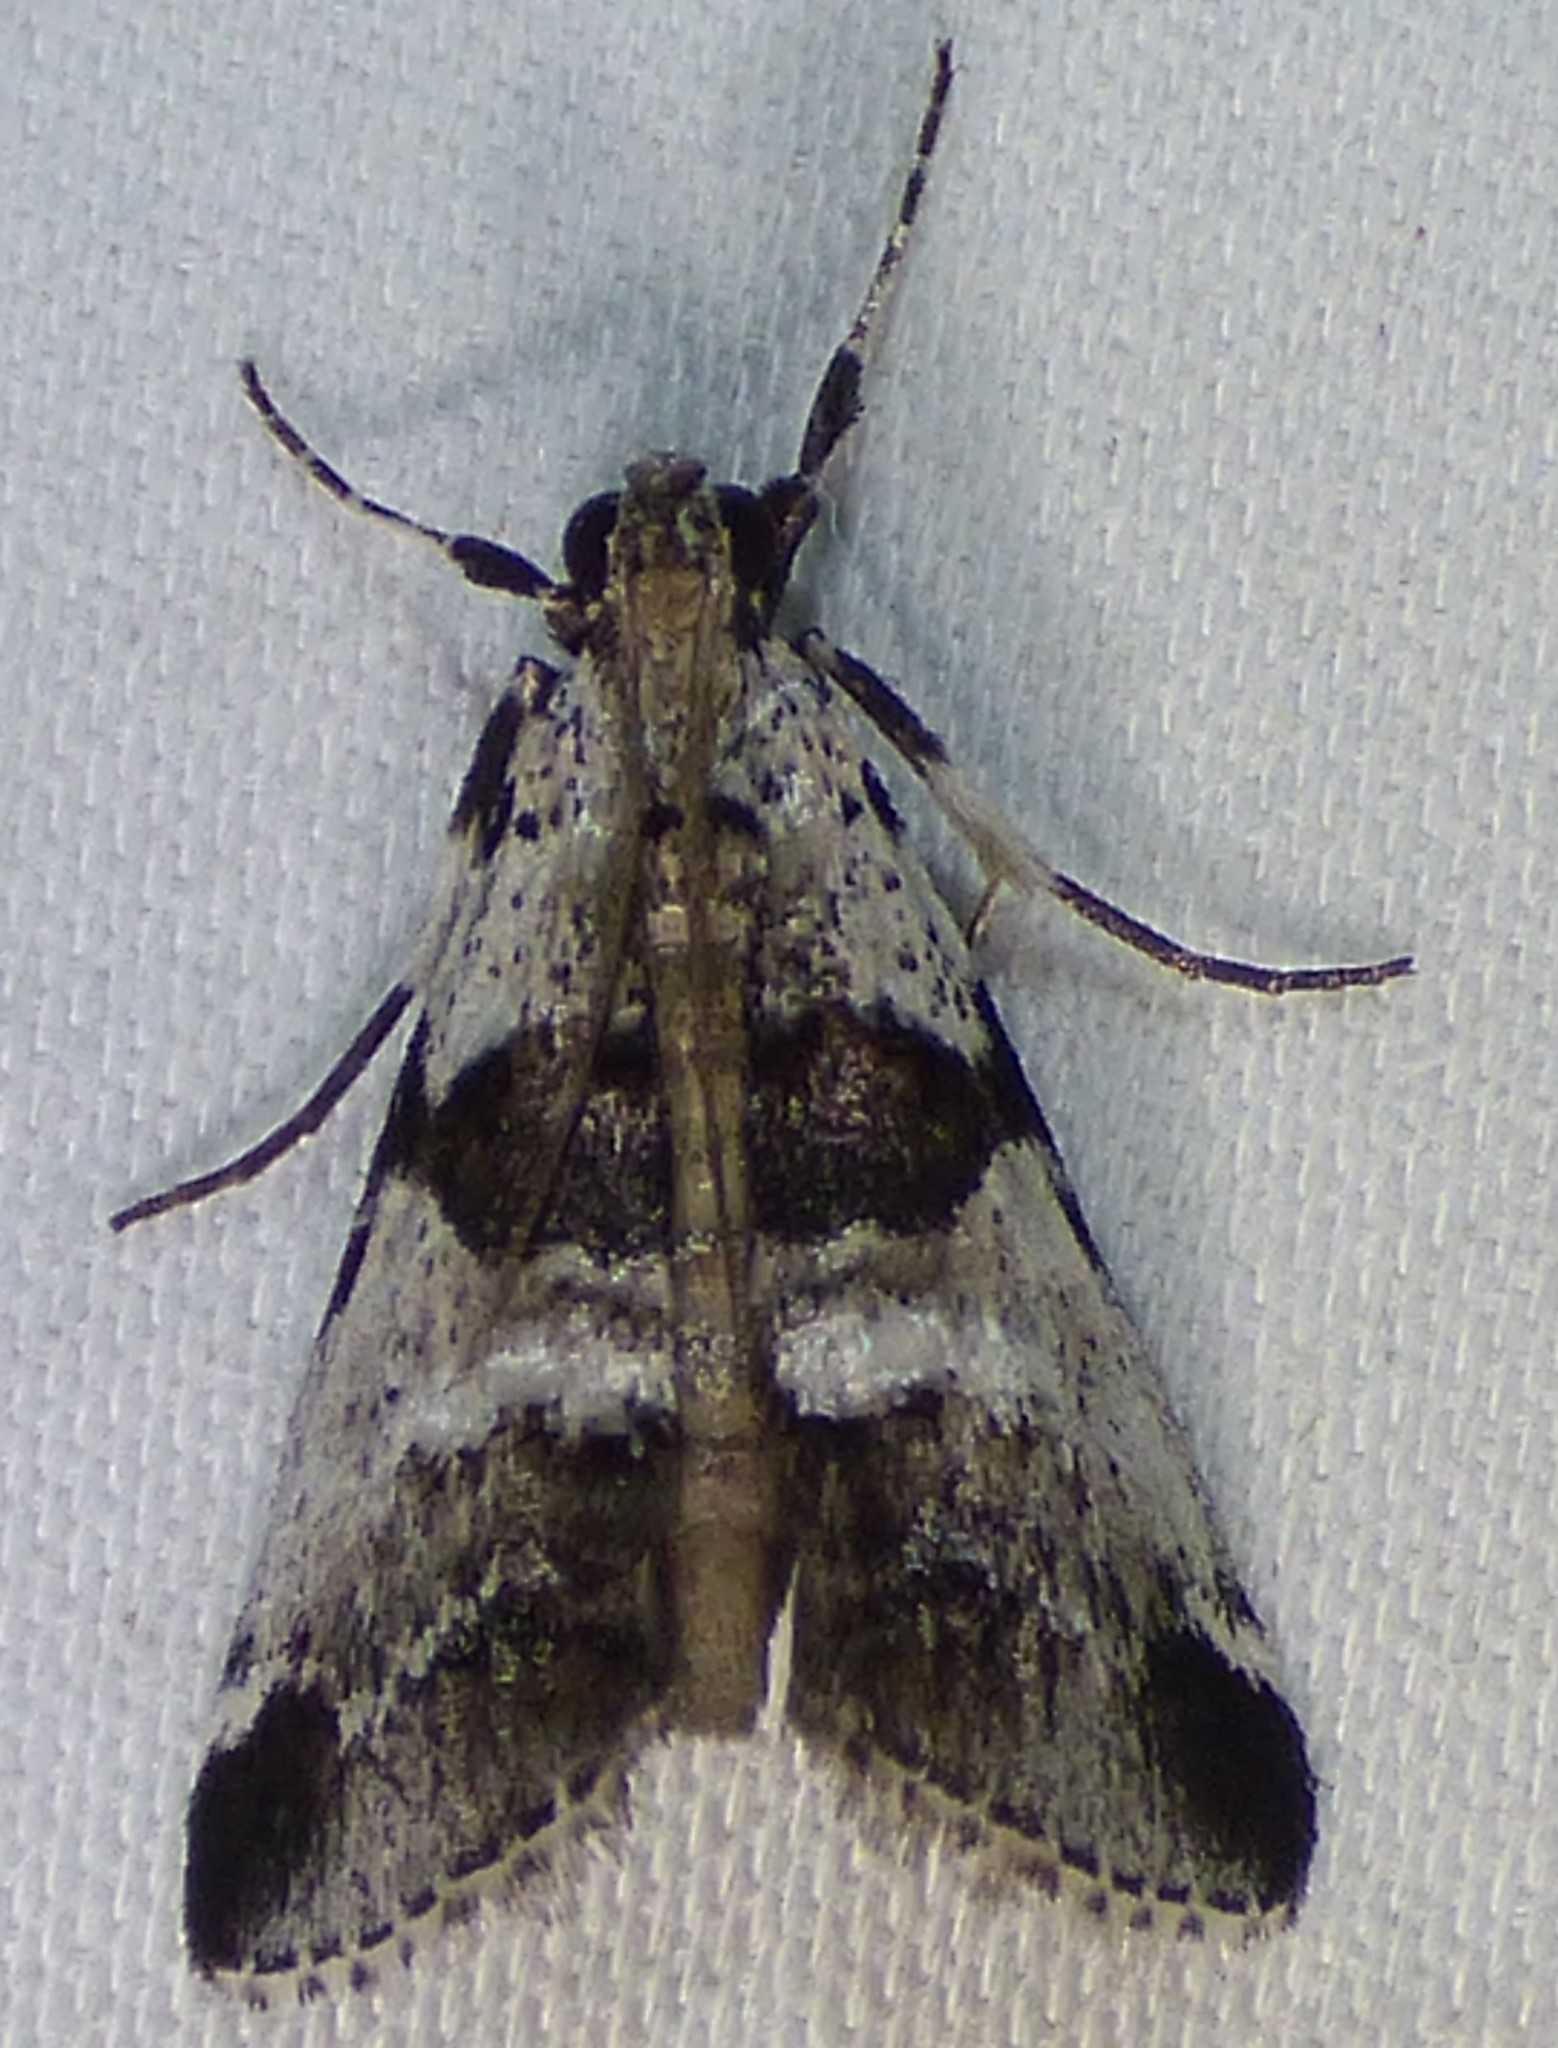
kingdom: Animalia
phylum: Arthropoda
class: Insecta
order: Lepidoptera
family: Pyralidae
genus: Tallula
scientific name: Tallula atrifascialis
